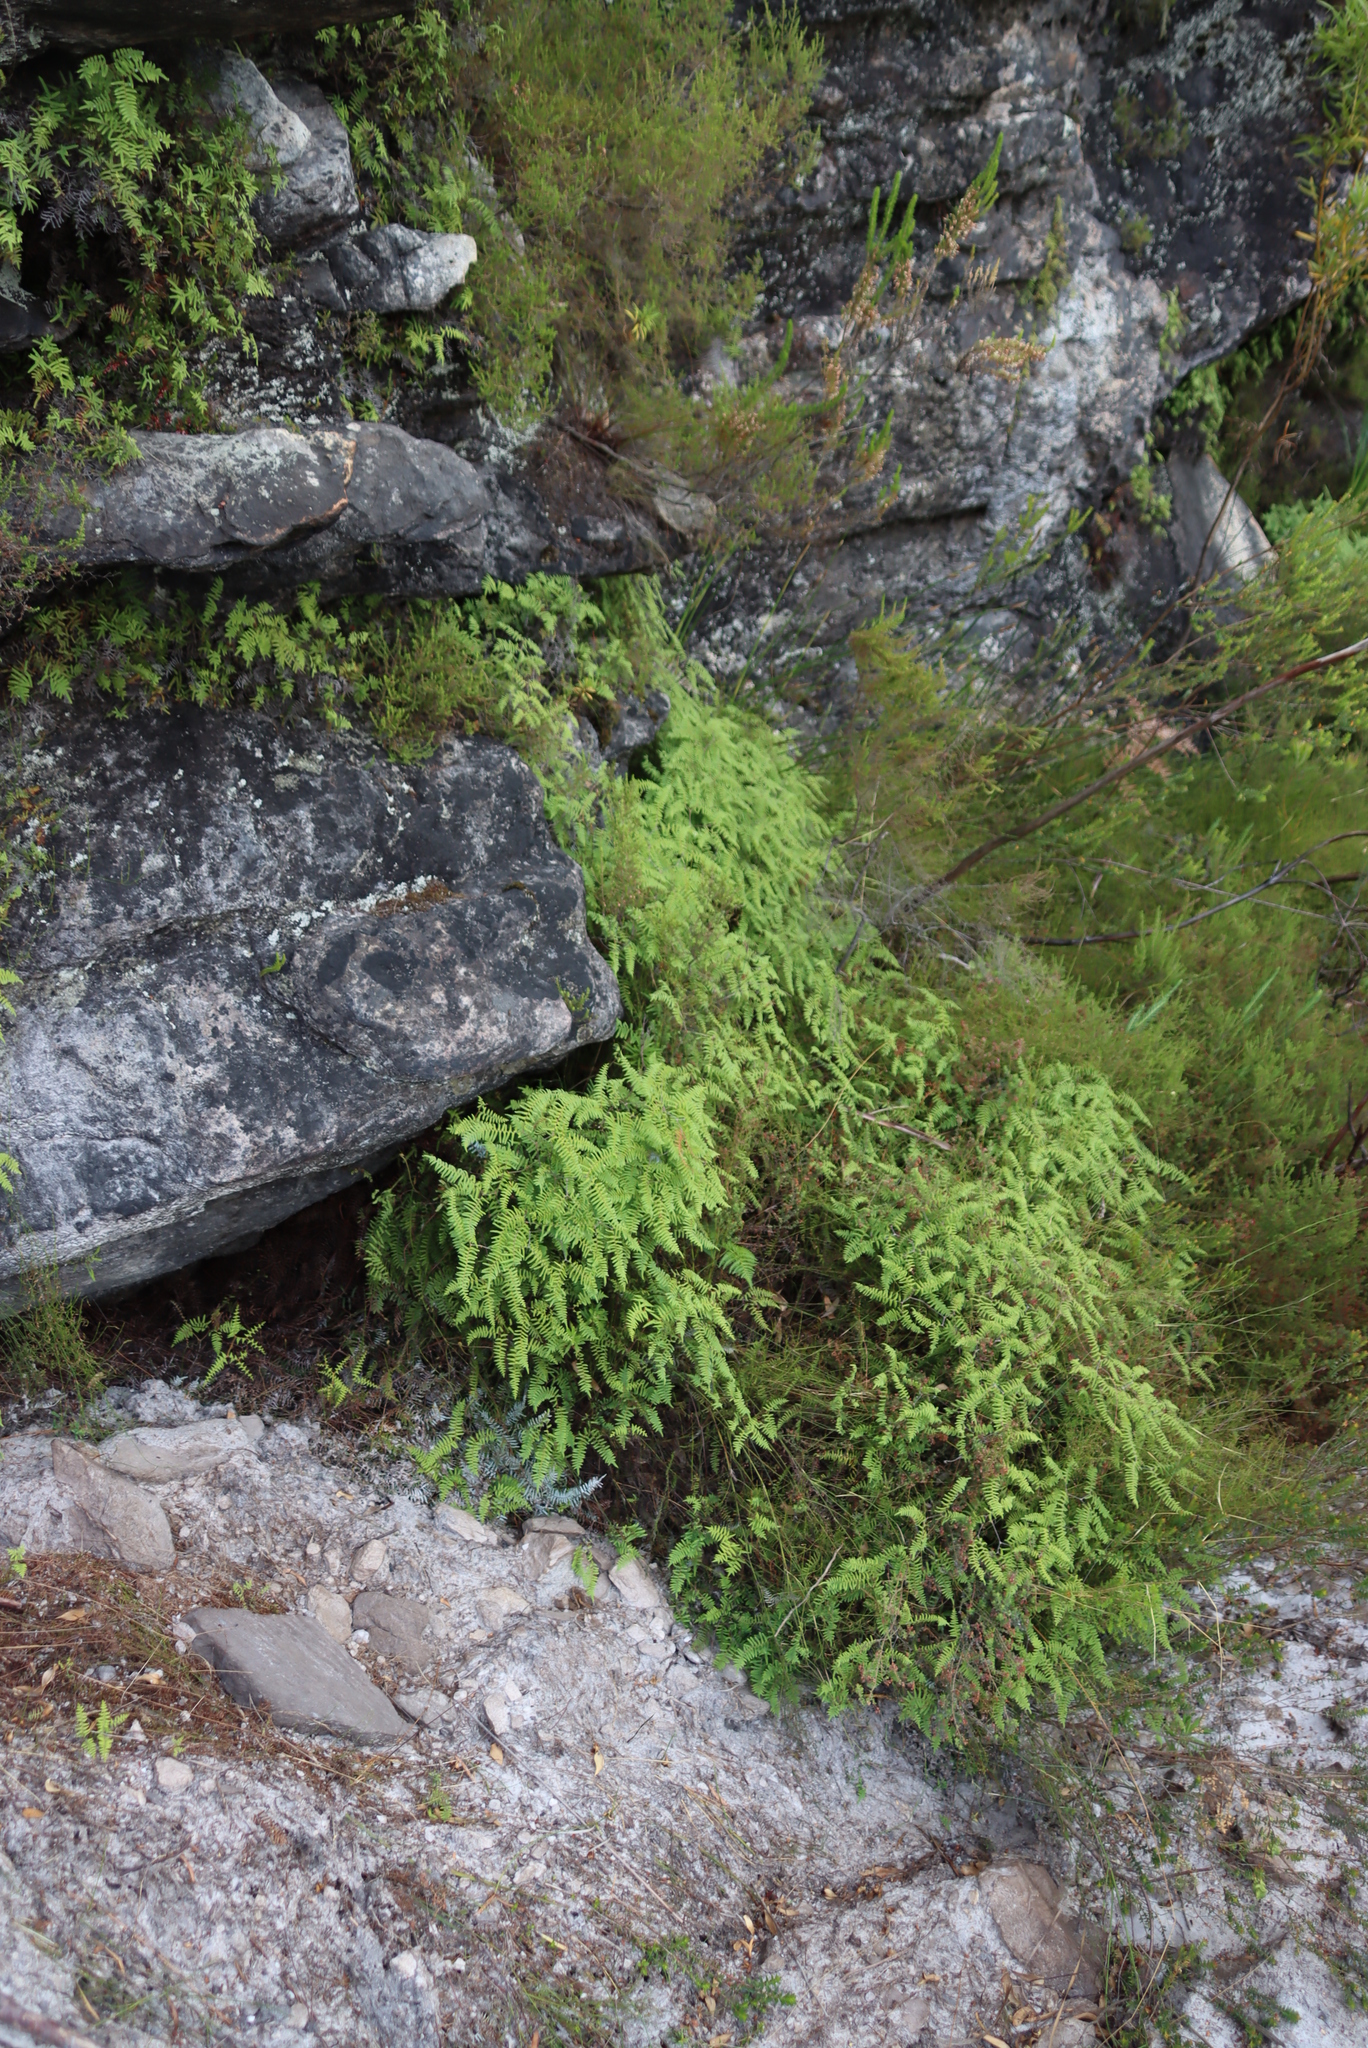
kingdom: Plantae
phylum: Tracheophyta
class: Polypodiopsida
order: Gleicheniales
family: Gleicheniaceae
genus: Gleichenia
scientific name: Gleichenia polypodioides
